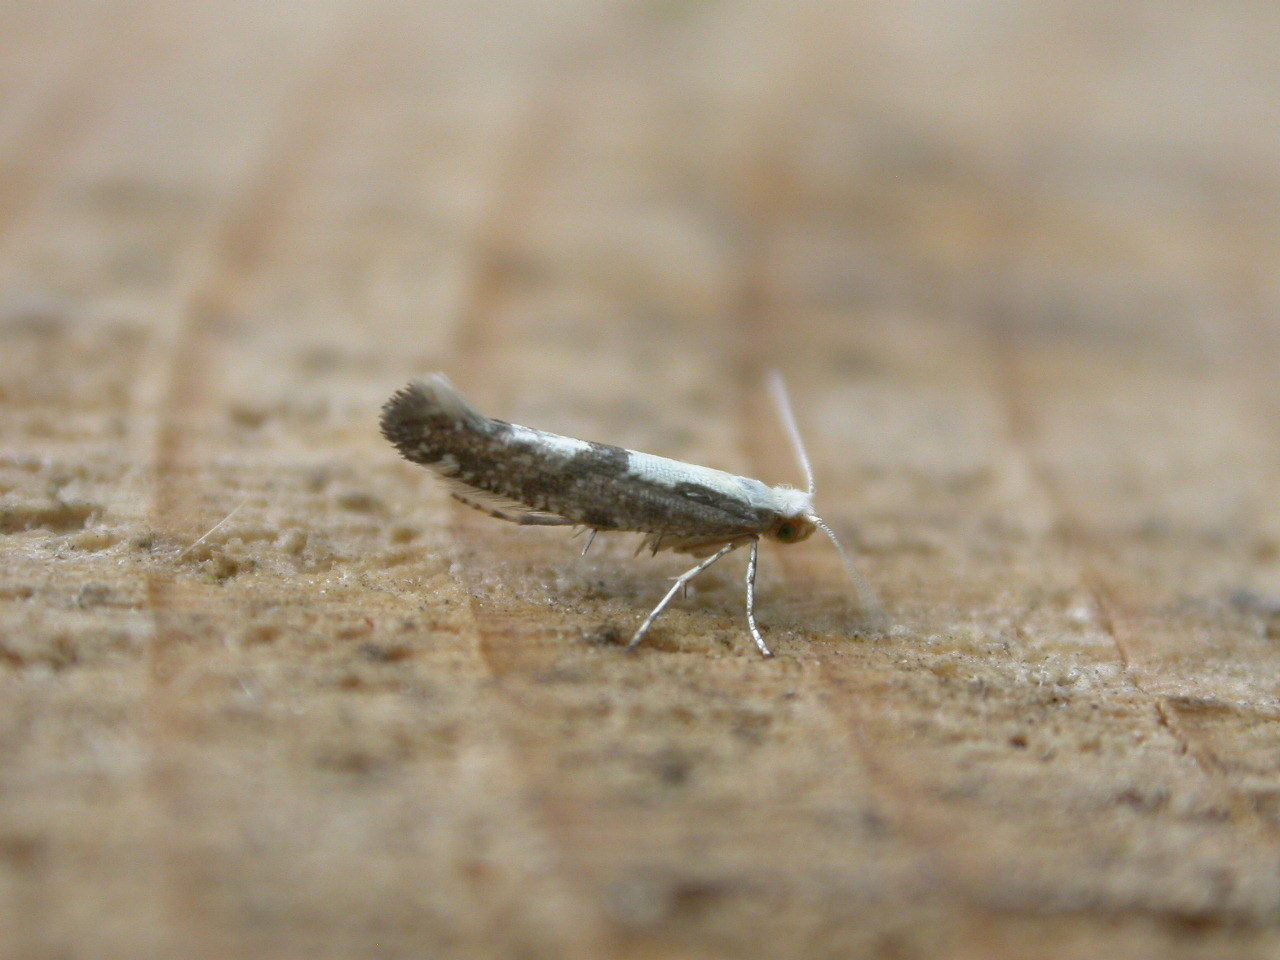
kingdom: Animalia
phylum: Arthropoda
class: Insecta
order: Lepidoptera
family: Argyresthiidae
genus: Argyresthia
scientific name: Argyresthia conjugella
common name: Apple fruit moth
